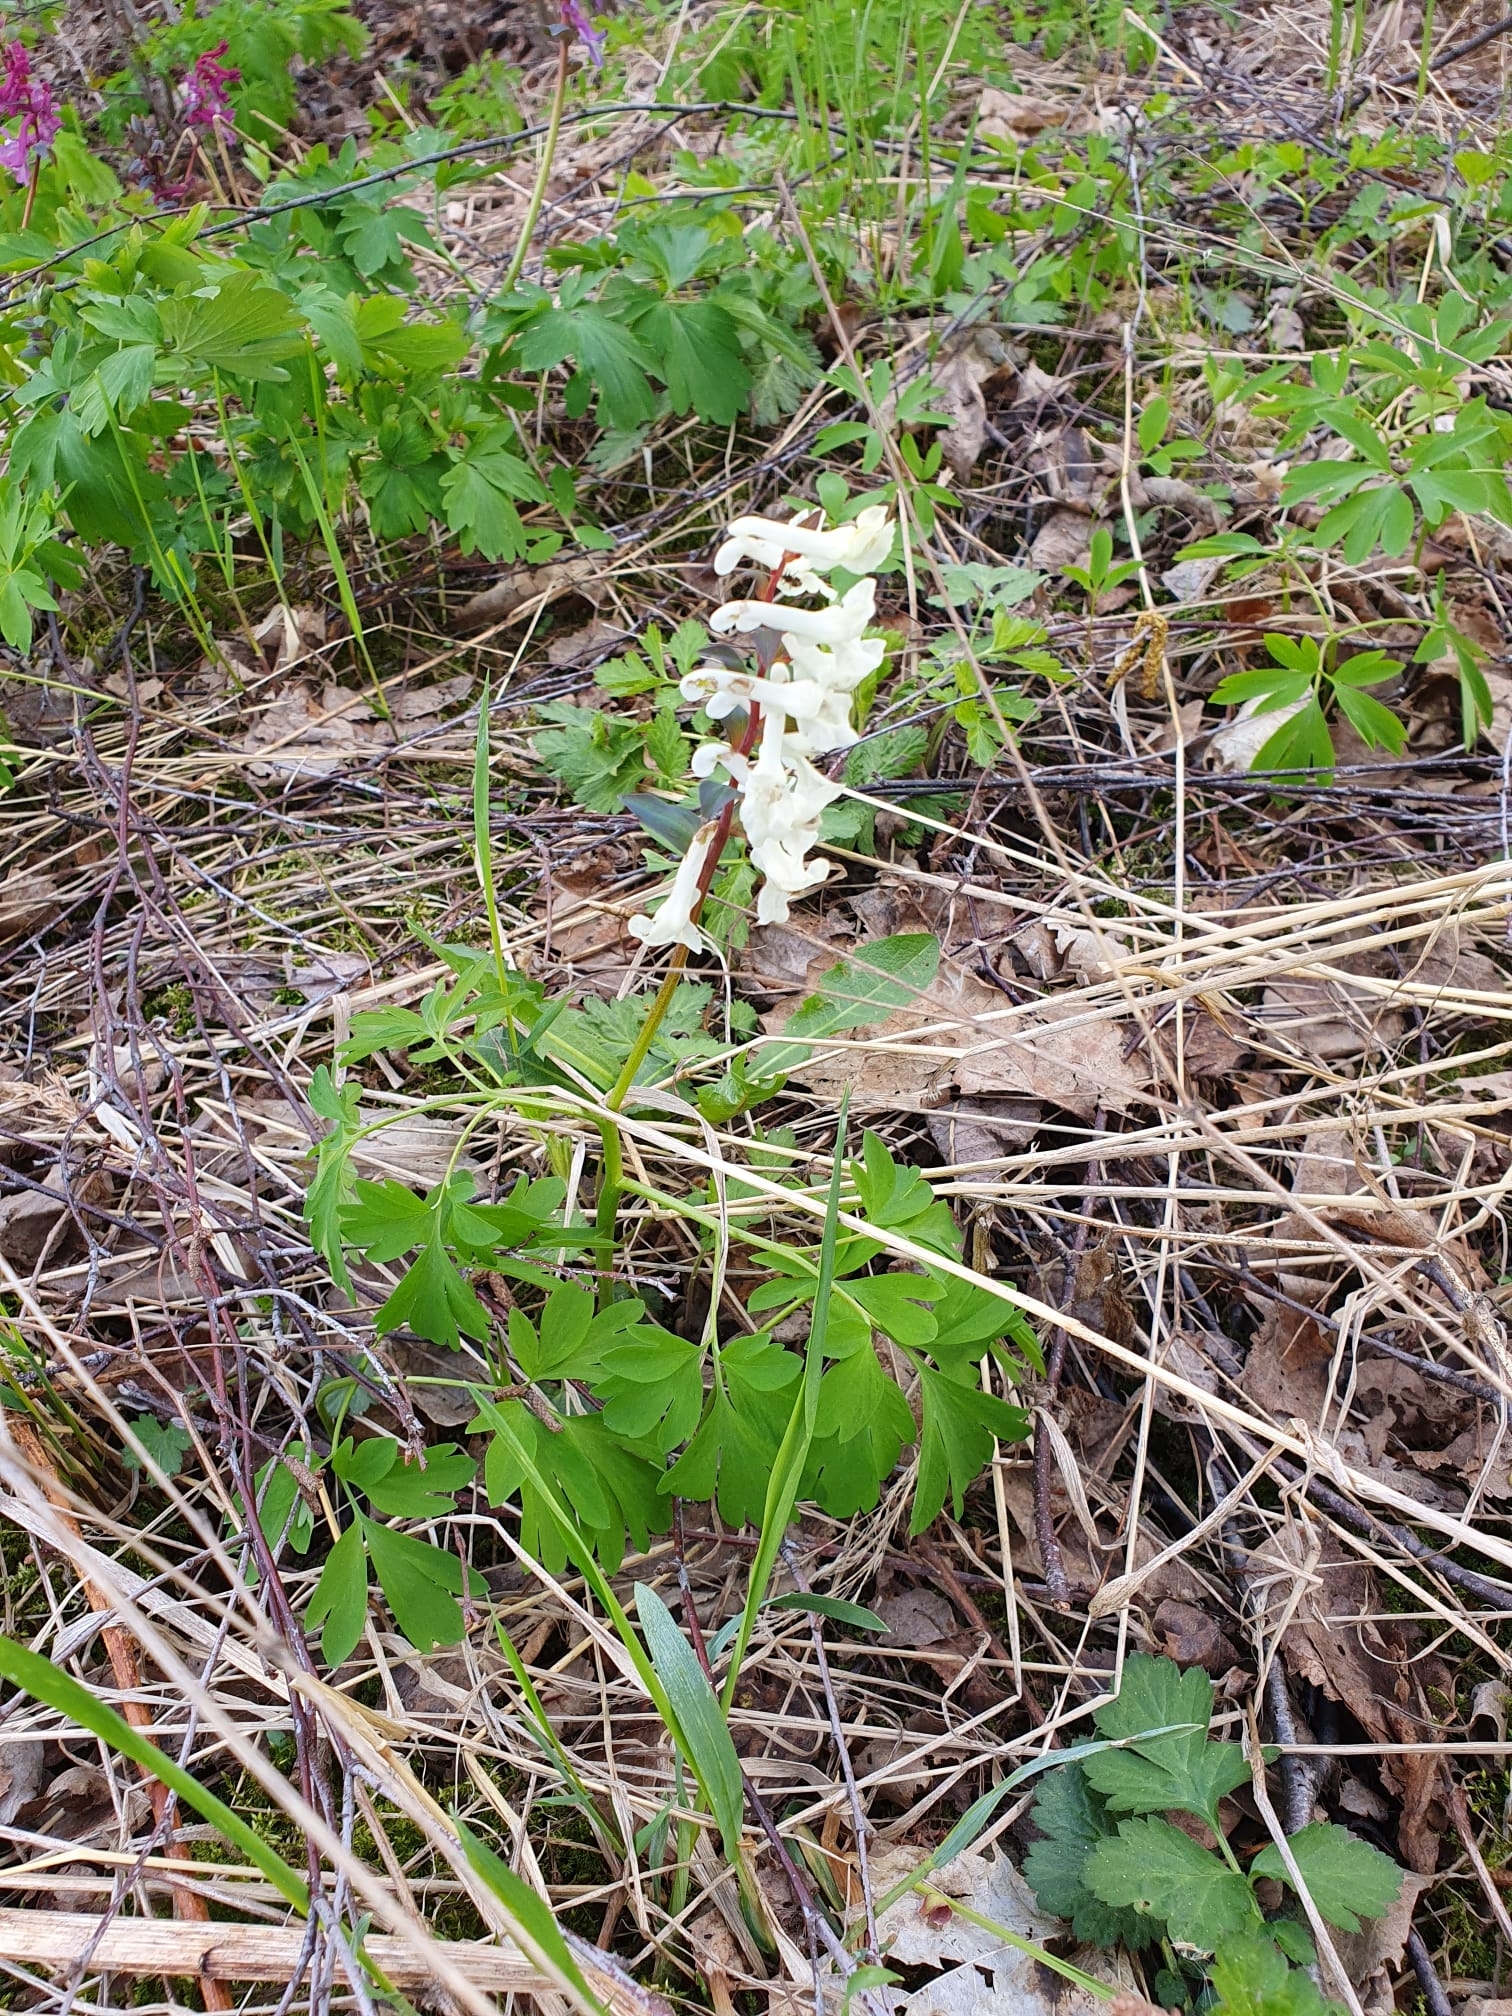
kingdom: Plantae
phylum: Tracheophyta
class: Magnoliopsida
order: Ranunculales
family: Papaveraceae
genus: Corydalis
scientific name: Corydalis cava
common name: Hollowroot
